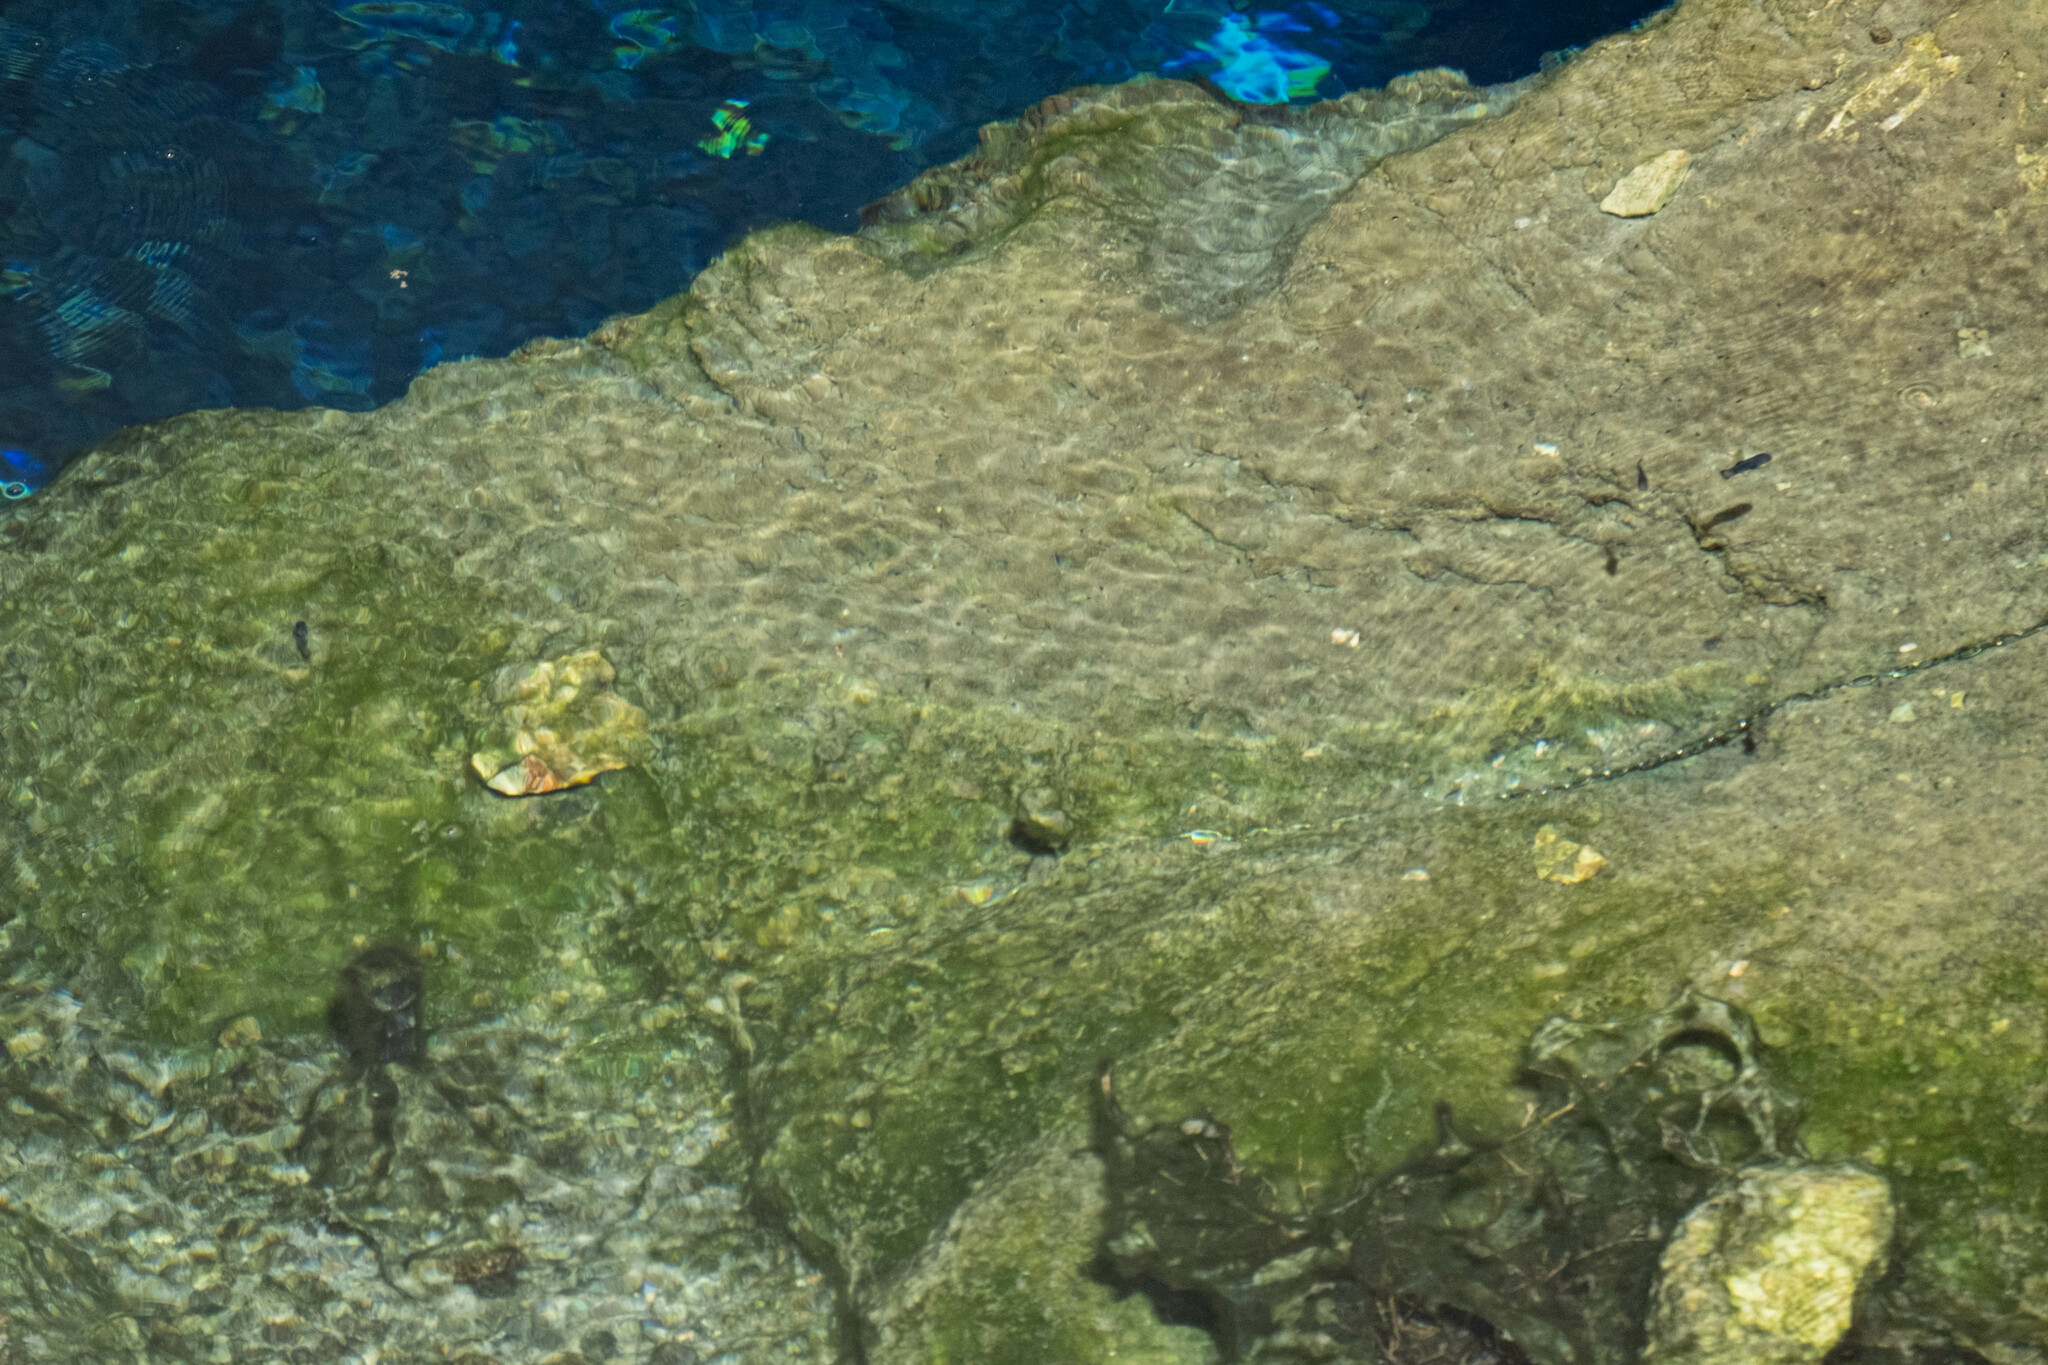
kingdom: Animalia
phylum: Chordata
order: Cyprinodontiformes
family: Cyprinodontidae
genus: Cyprinodon
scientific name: Cyprinodon diabolis
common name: Devils hole pupfish
